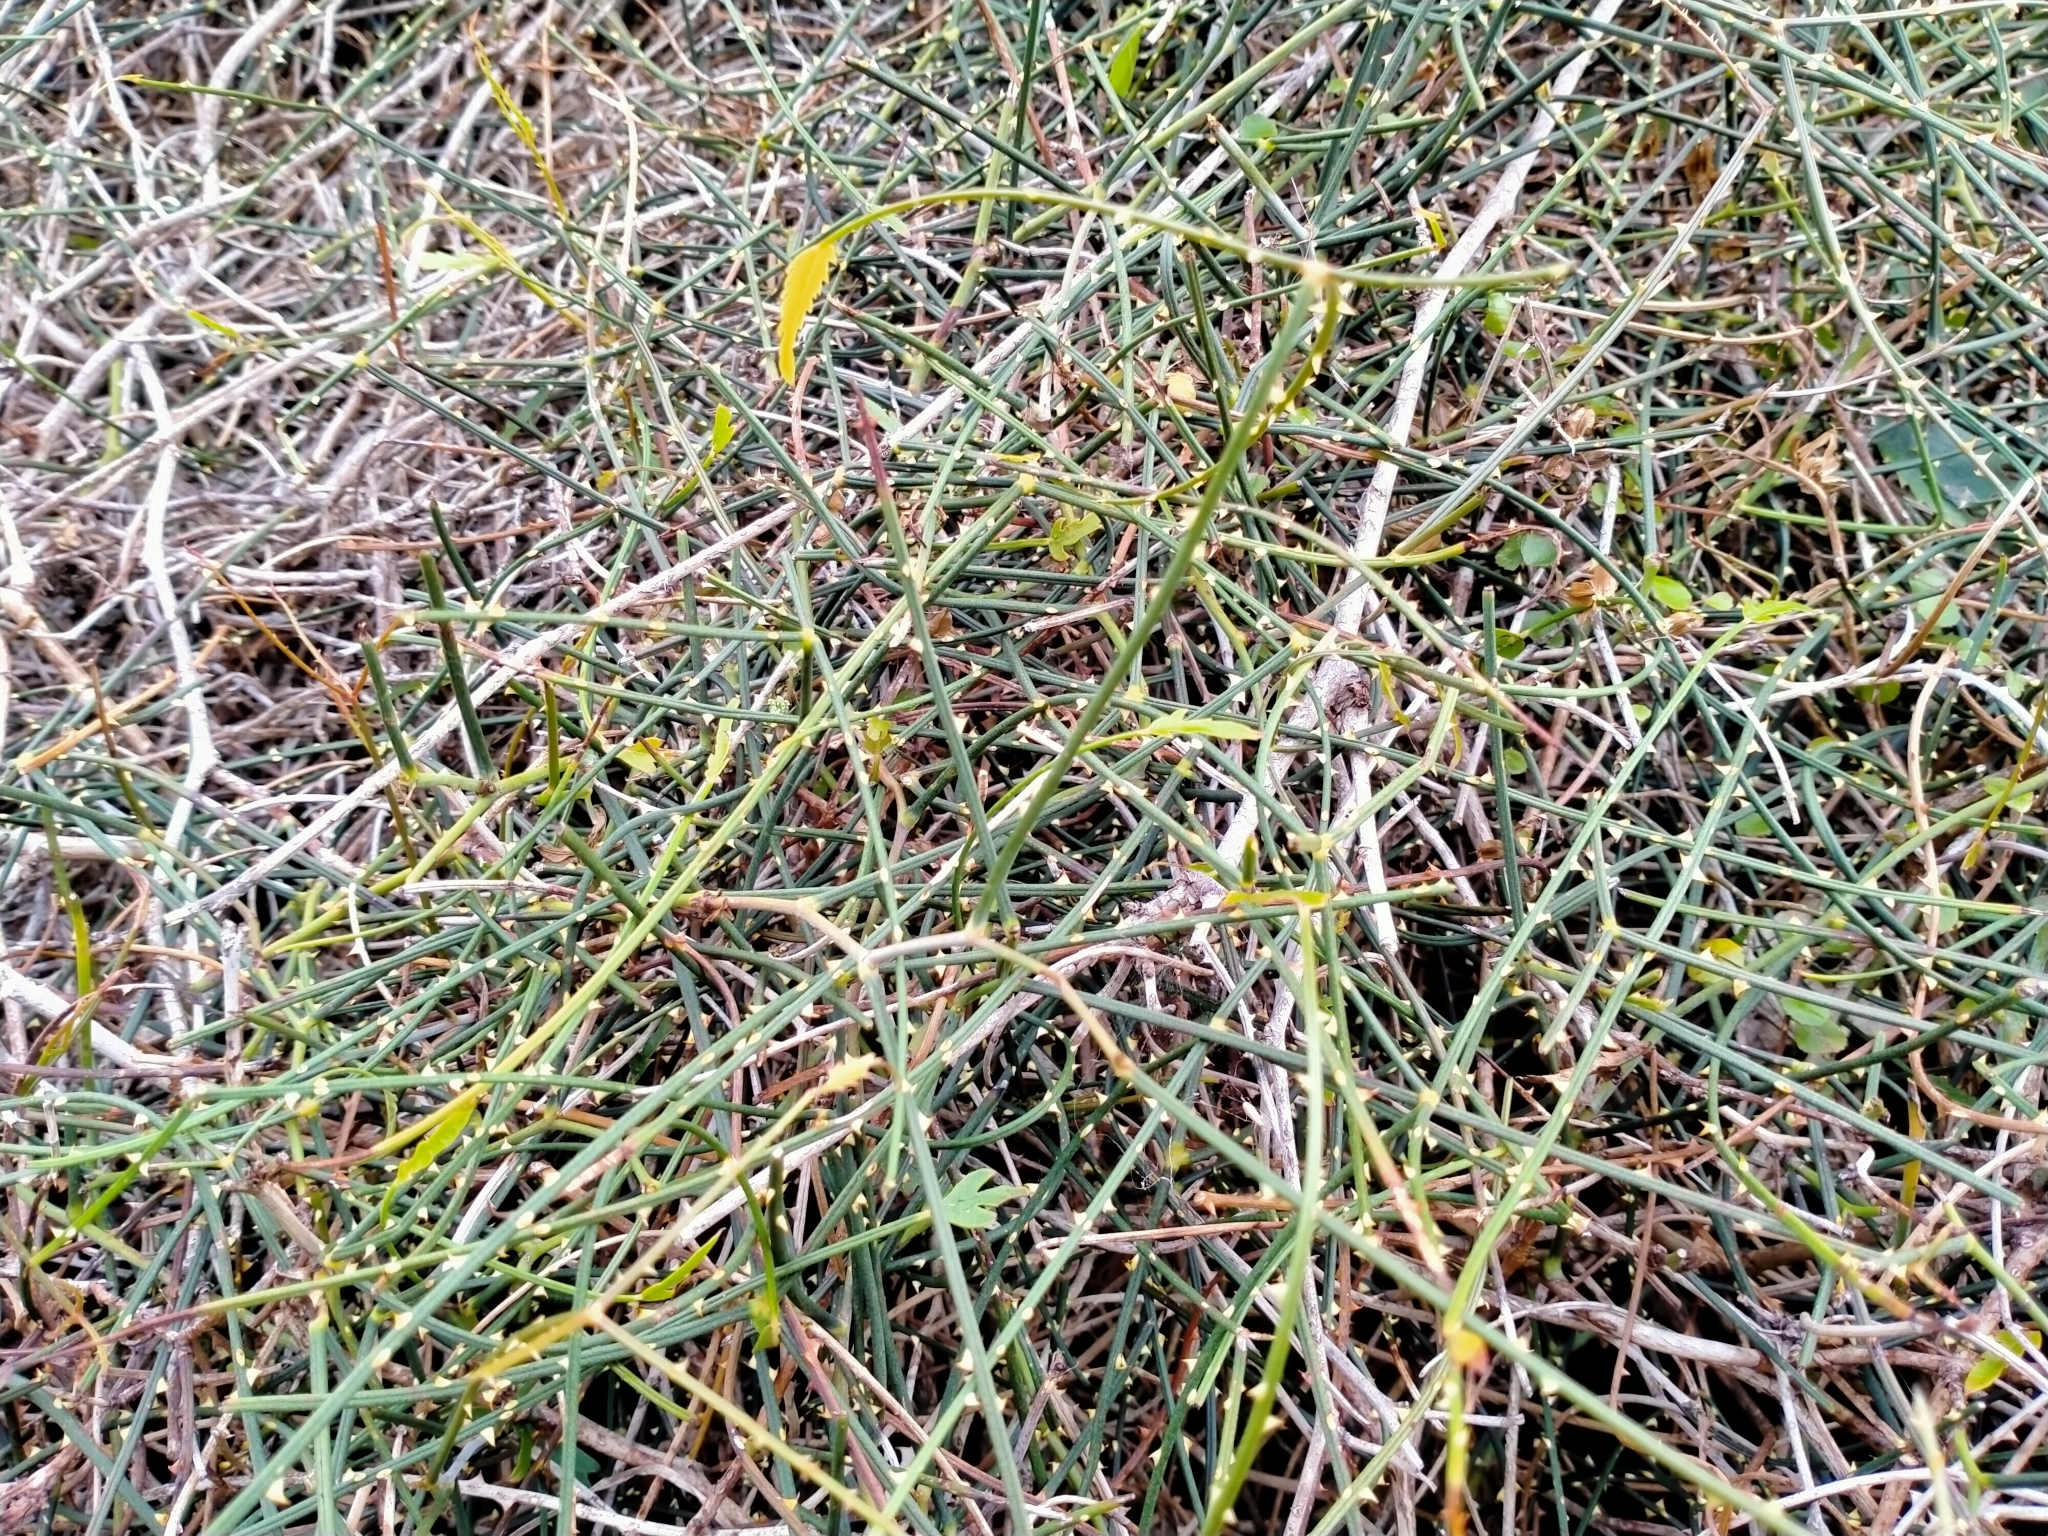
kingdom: Plantae
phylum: Tracheophyta
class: Magnoliopsida
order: Rosales
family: Rosaceae
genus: Rubus
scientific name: Rubus squarrosus
